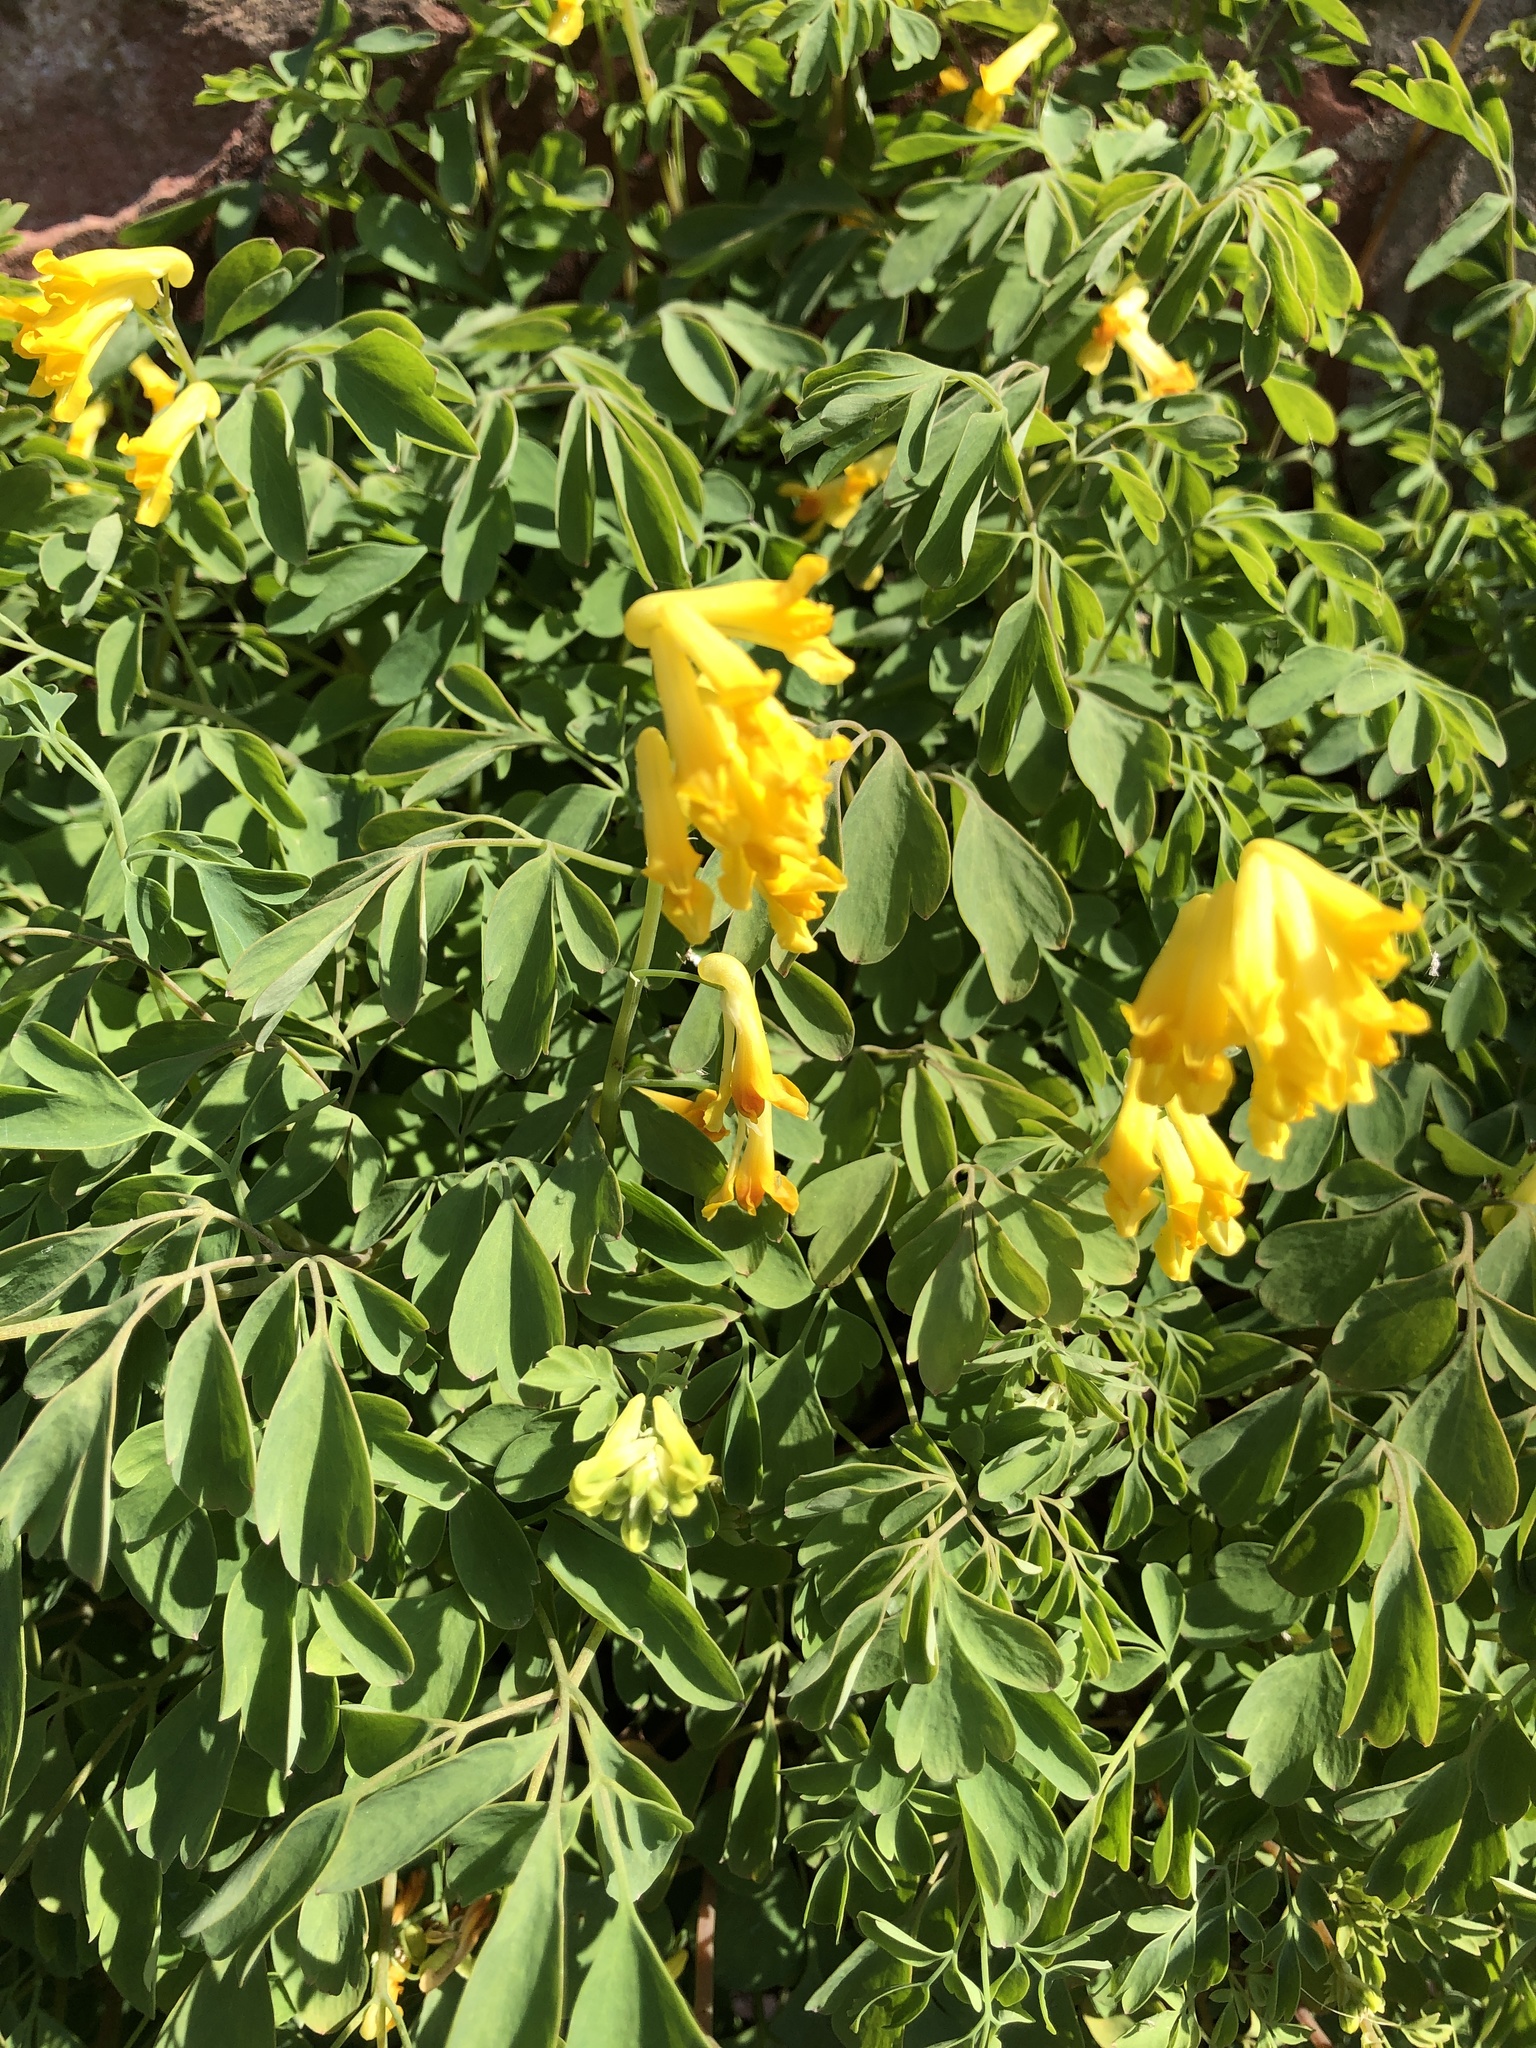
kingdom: Plantae
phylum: Tracheophyta
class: Magnoliopsida
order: Ranunculales
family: Papaveraceae
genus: Pseudofumaria
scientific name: Pseudofumaria lutea
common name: Yellow corydalis
